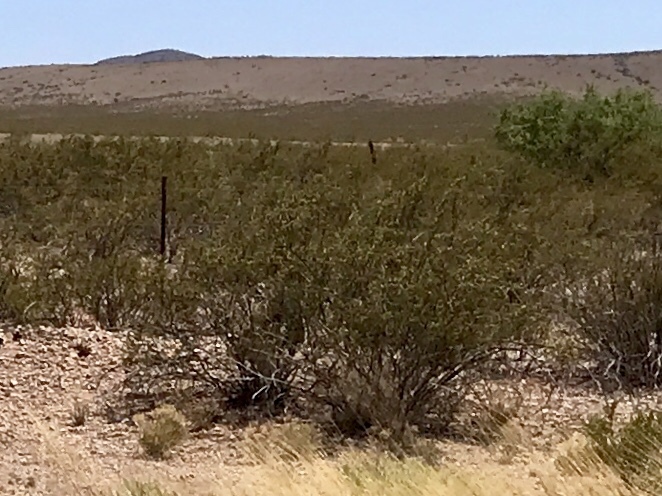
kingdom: Plantae
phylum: Tracheophyta
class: Magnoliopsida
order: Zygophyllales
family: Zygophyllaceae
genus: Larrea
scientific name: Larrea tridentata
